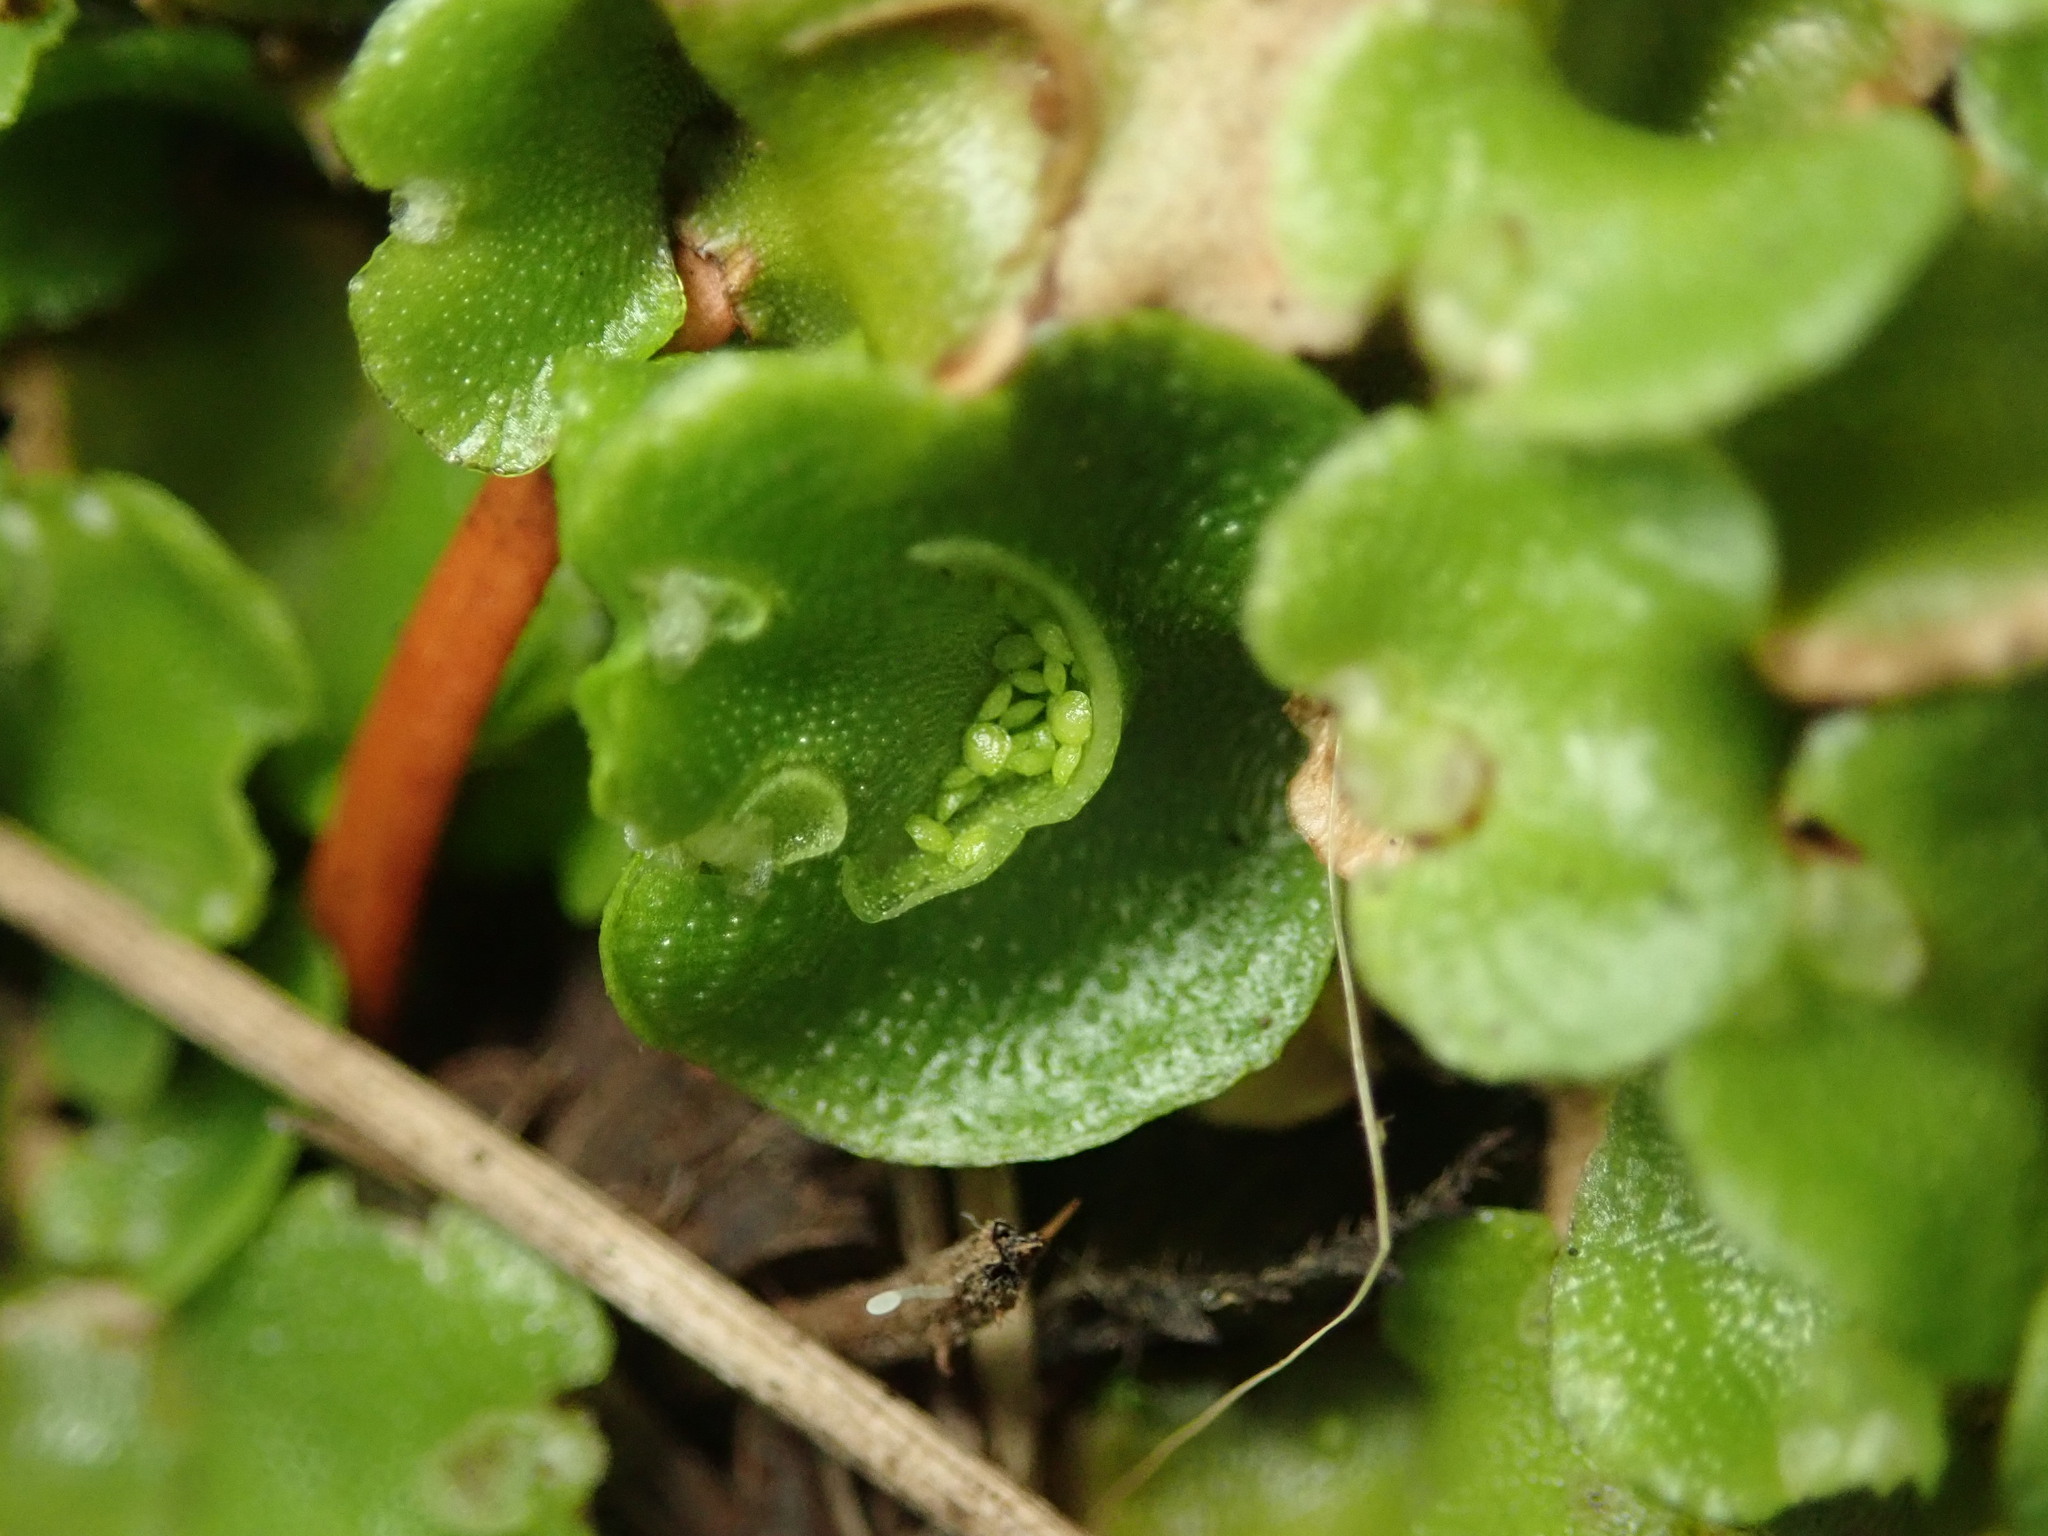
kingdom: Plantae
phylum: Marchantiophyta
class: Marchantiopsida
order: Lunulariales
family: Lunulariaceae
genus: Lunularia
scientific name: Lunularia cruciata
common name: Crescent-cup liverwort
